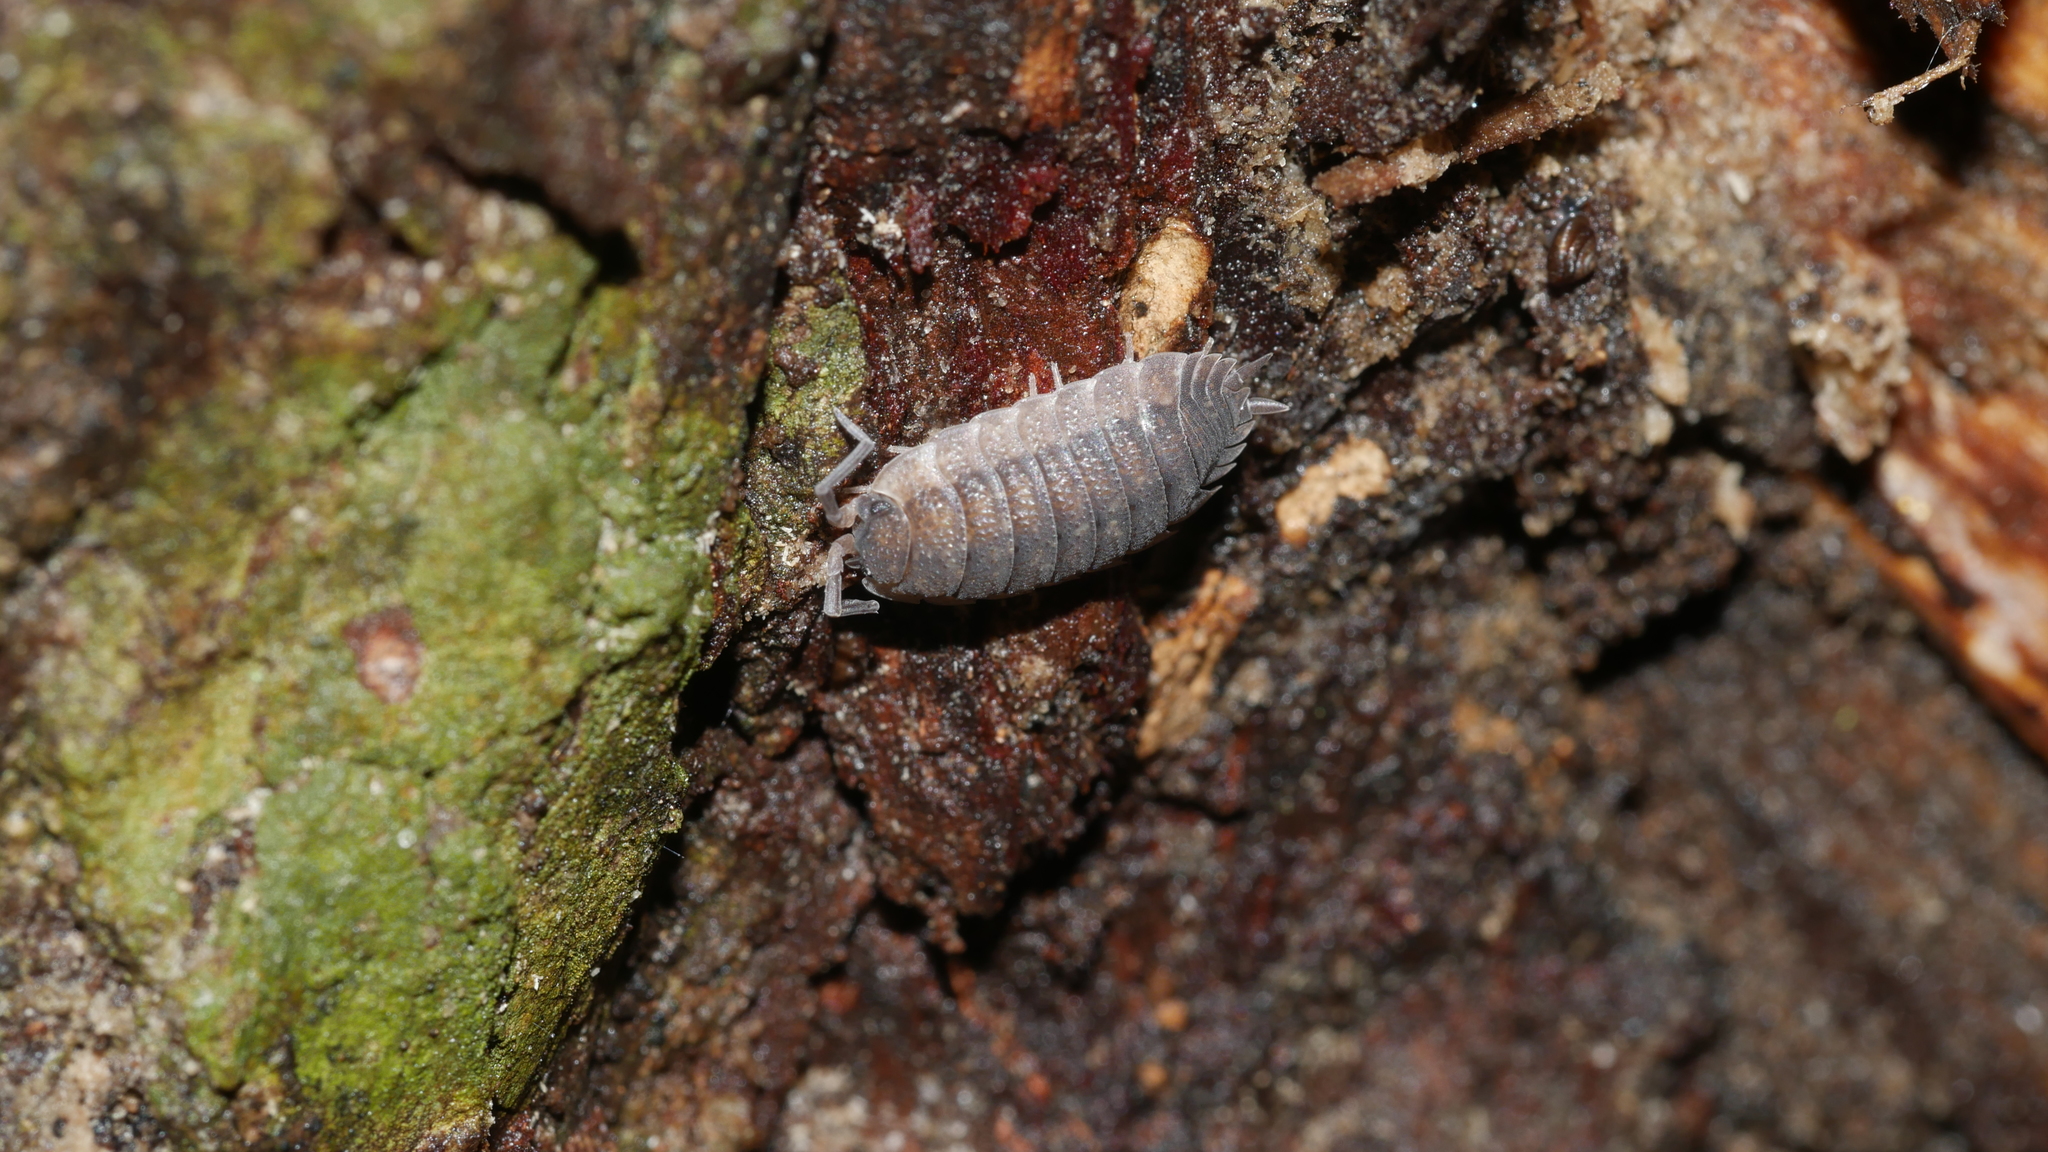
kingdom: Animalia
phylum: Arthropoda
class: Malacostraca
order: Isopoda
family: Porcellionidae
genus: Porcellio
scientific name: Porcellio scaber
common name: Common rough woodlouse
